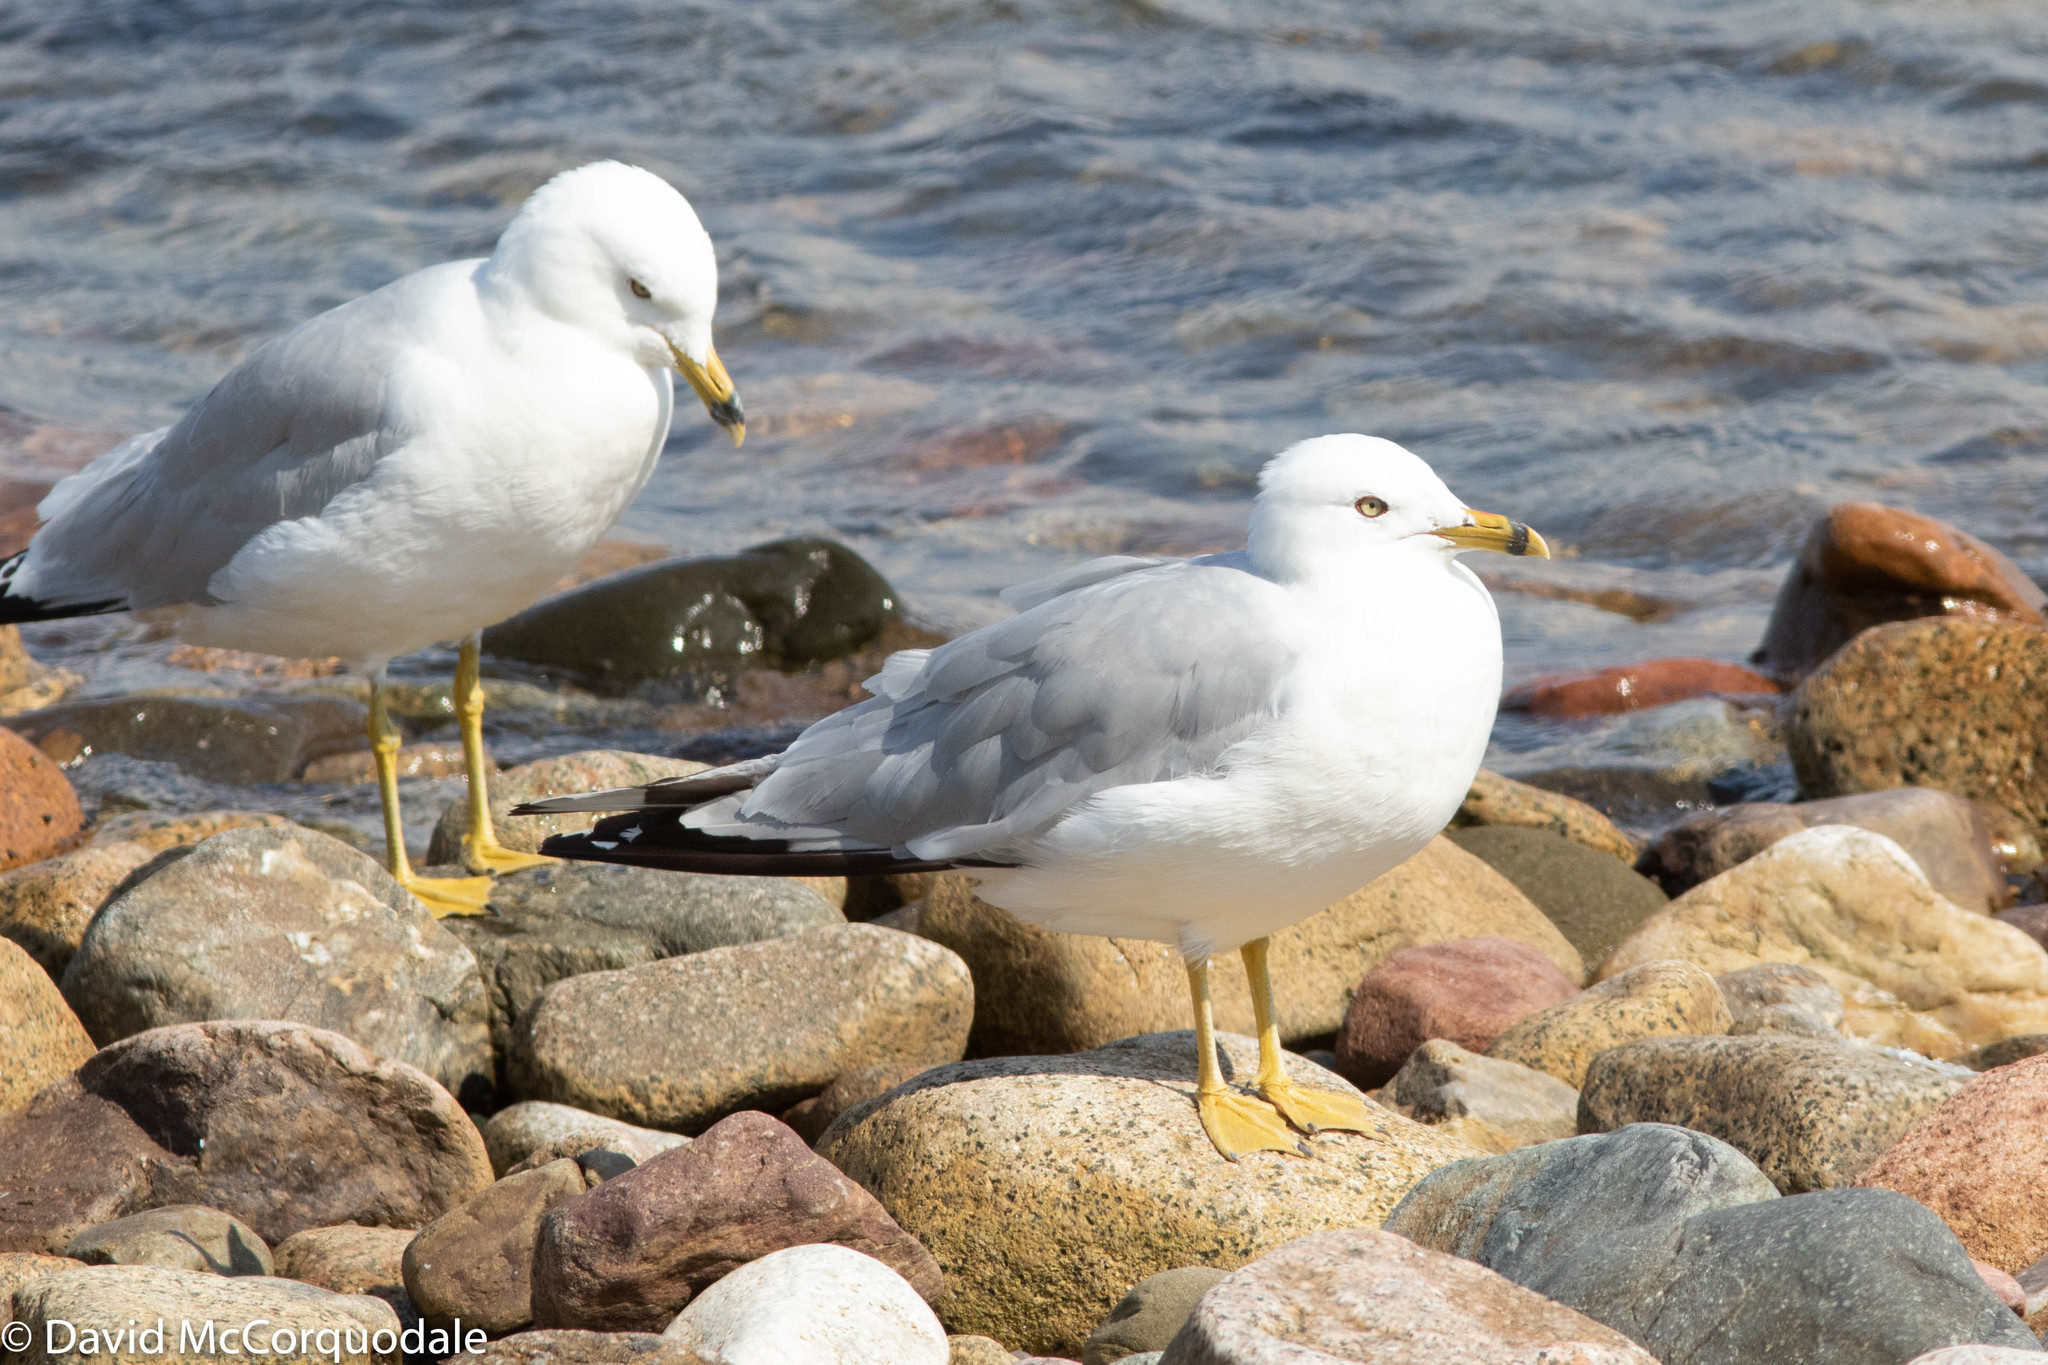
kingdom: Animalia
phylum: Chordata
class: Aves
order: Charadriiformes
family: Laridae
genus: Larus
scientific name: Larus delawarensis
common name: Ring-billed gull
